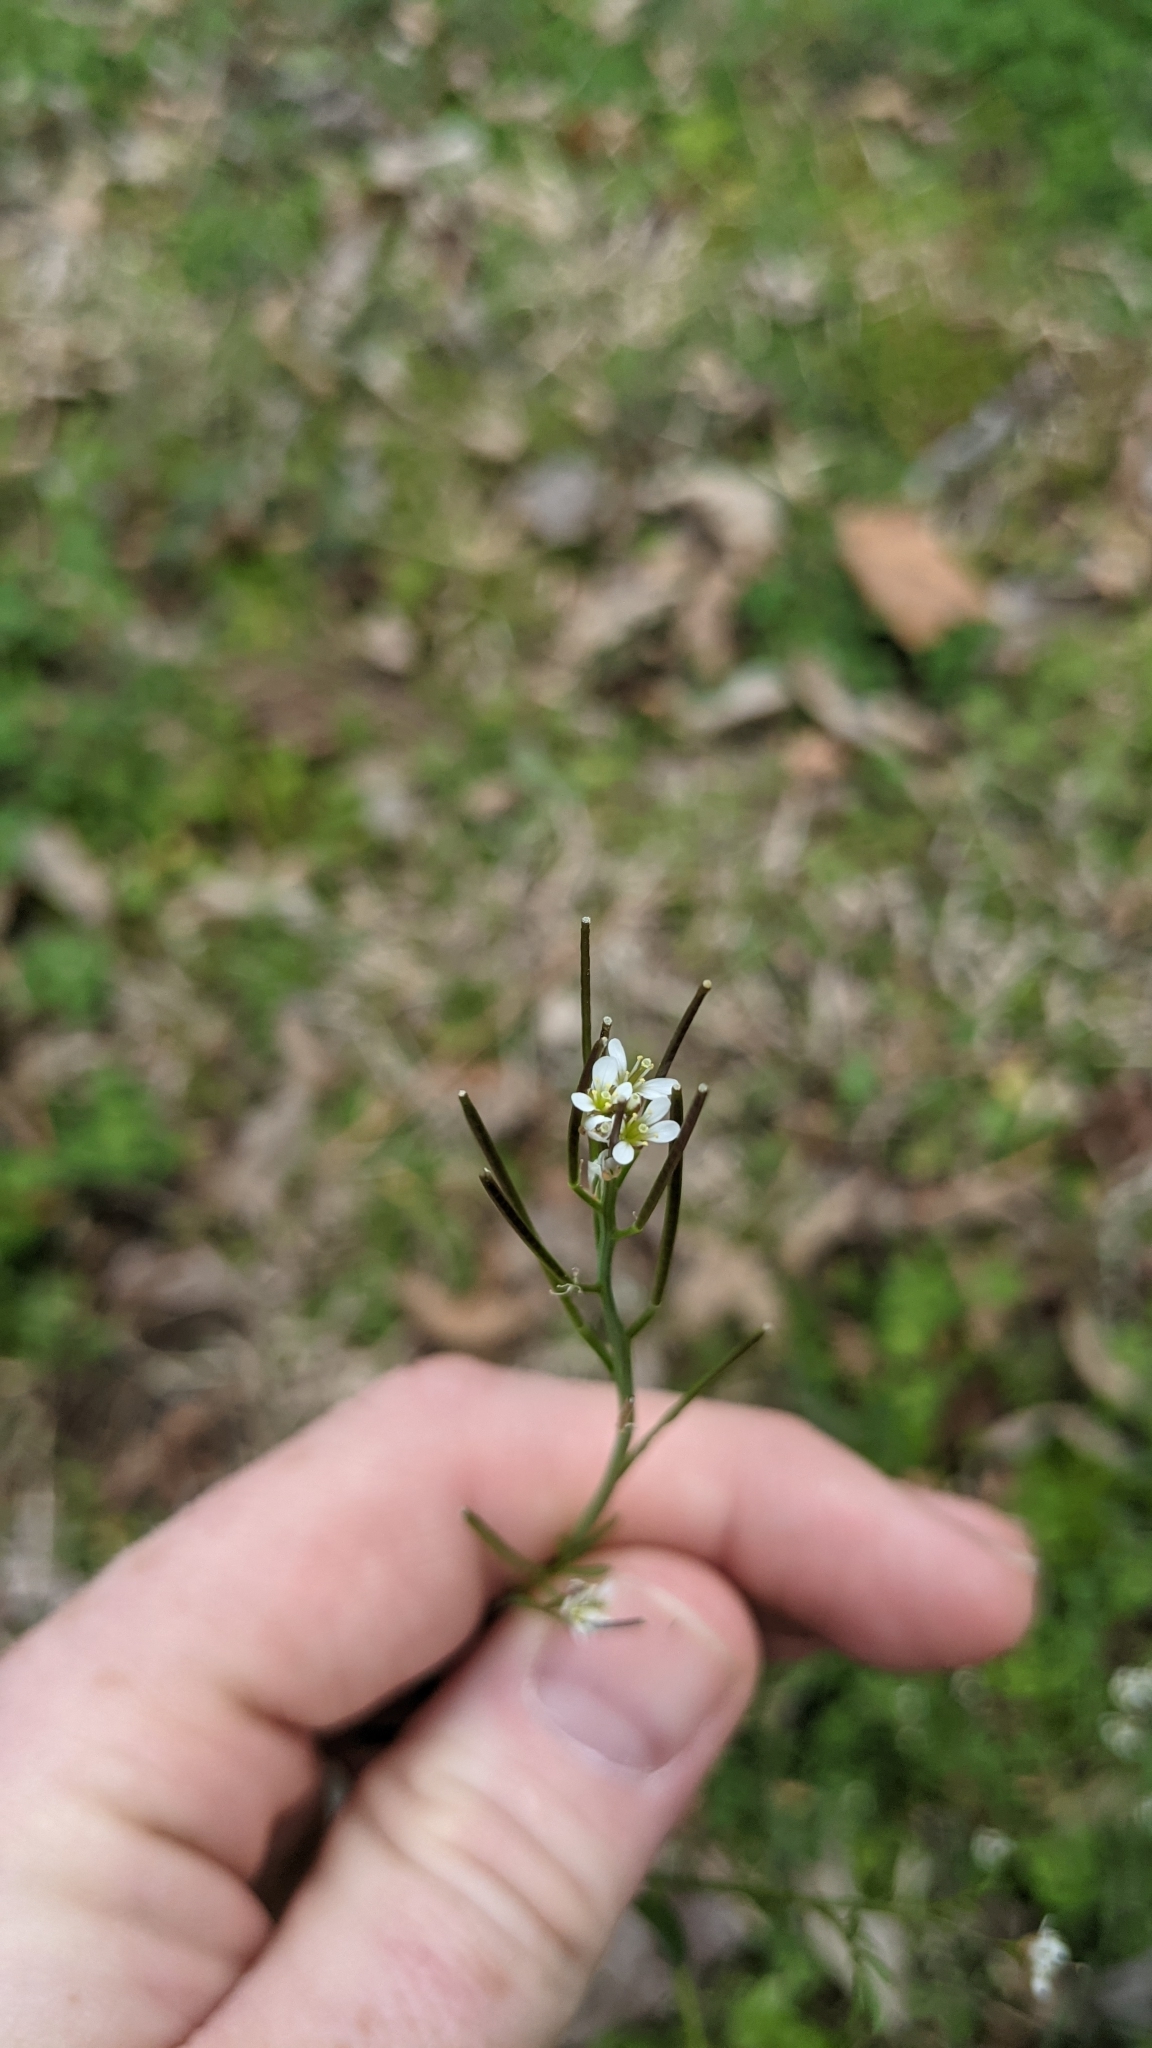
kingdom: Plantae
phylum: Tracheophyta
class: Magnoliopsida
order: Brassicales
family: Brassicaceae
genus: Cardamine
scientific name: Cardamine hirsuta
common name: Hairy bittercress
